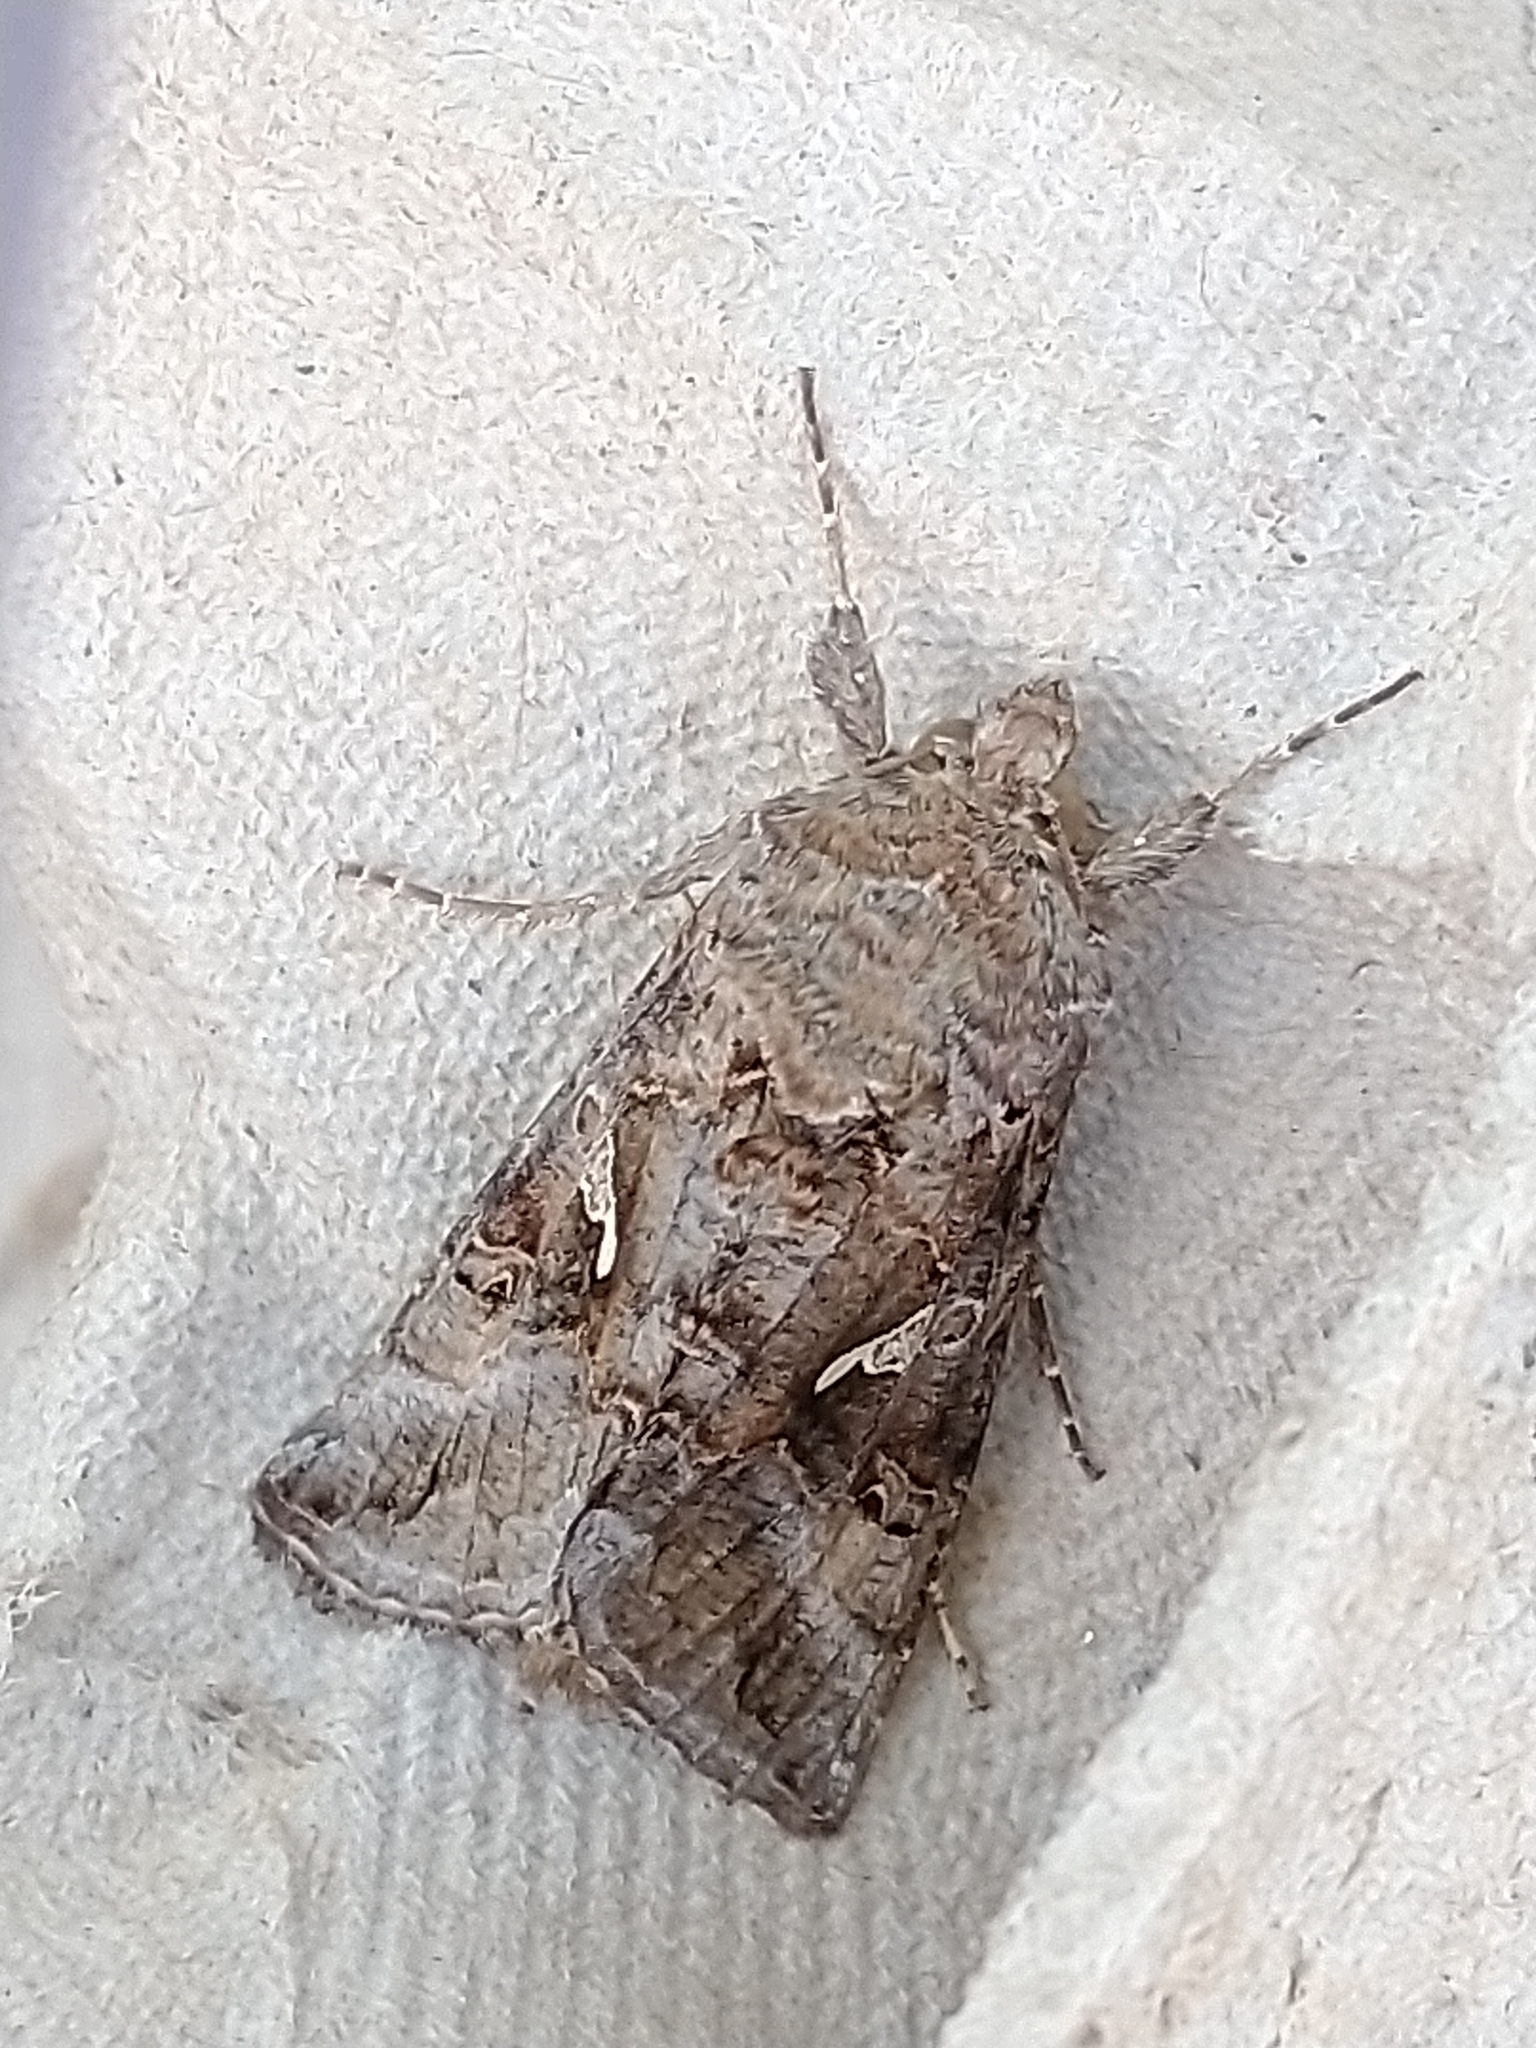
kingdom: Animalia
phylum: Arthropoda
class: Insecta
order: Lepidoptera
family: Noctuidae
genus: Autographa
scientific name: Autographa gamma
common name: Silver y
